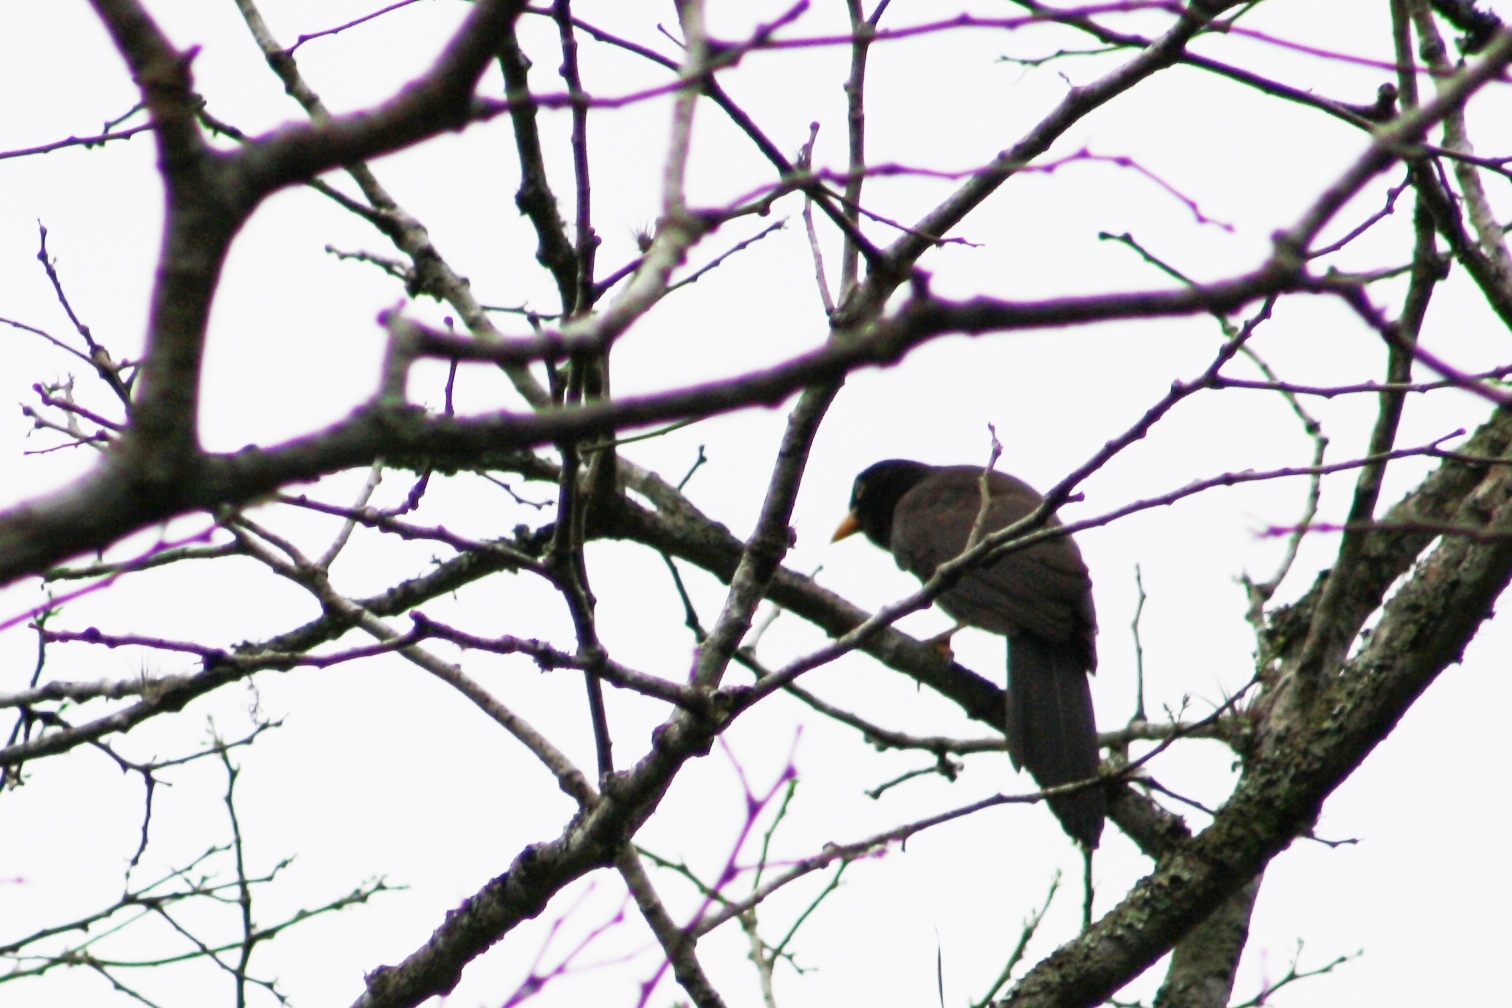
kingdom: Animalia
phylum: Chordata
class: Aves
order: Passeriformes
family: Corvidae
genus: Psilorhinus
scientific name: Psilorhinus morio
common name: Brown jay
